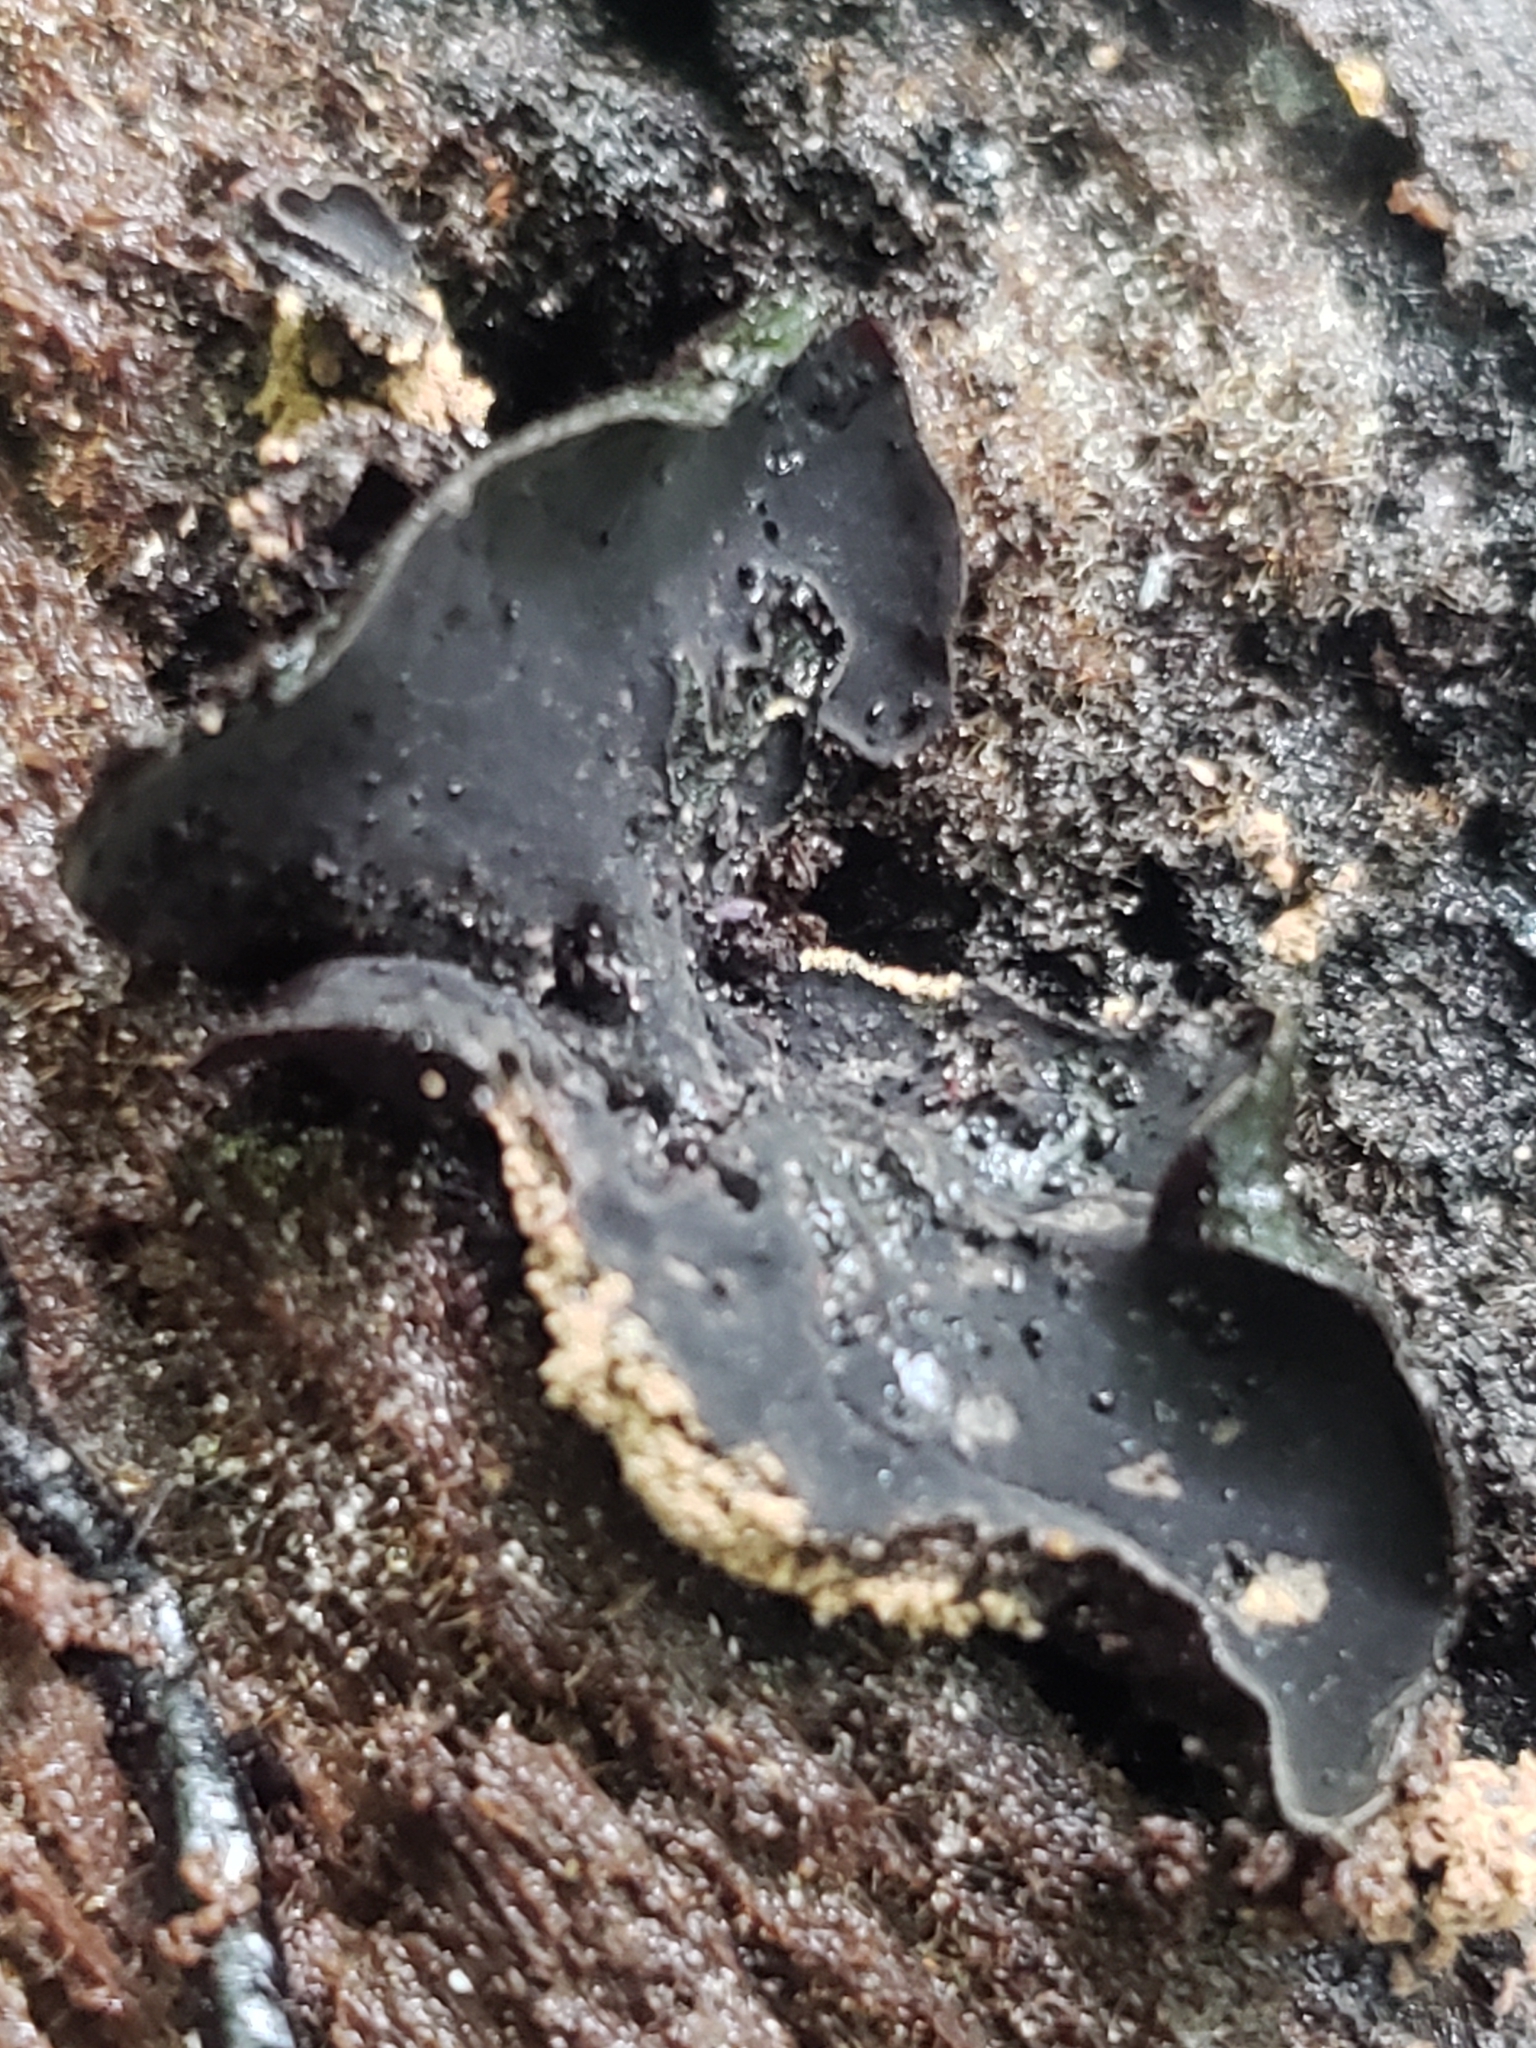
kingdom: Fungi
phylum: Ascomycota
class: Leotiomycetes
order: Helotiales
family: Cordieritidaceae
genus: Diplocarpa
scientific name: Diplocarpa irregularis
